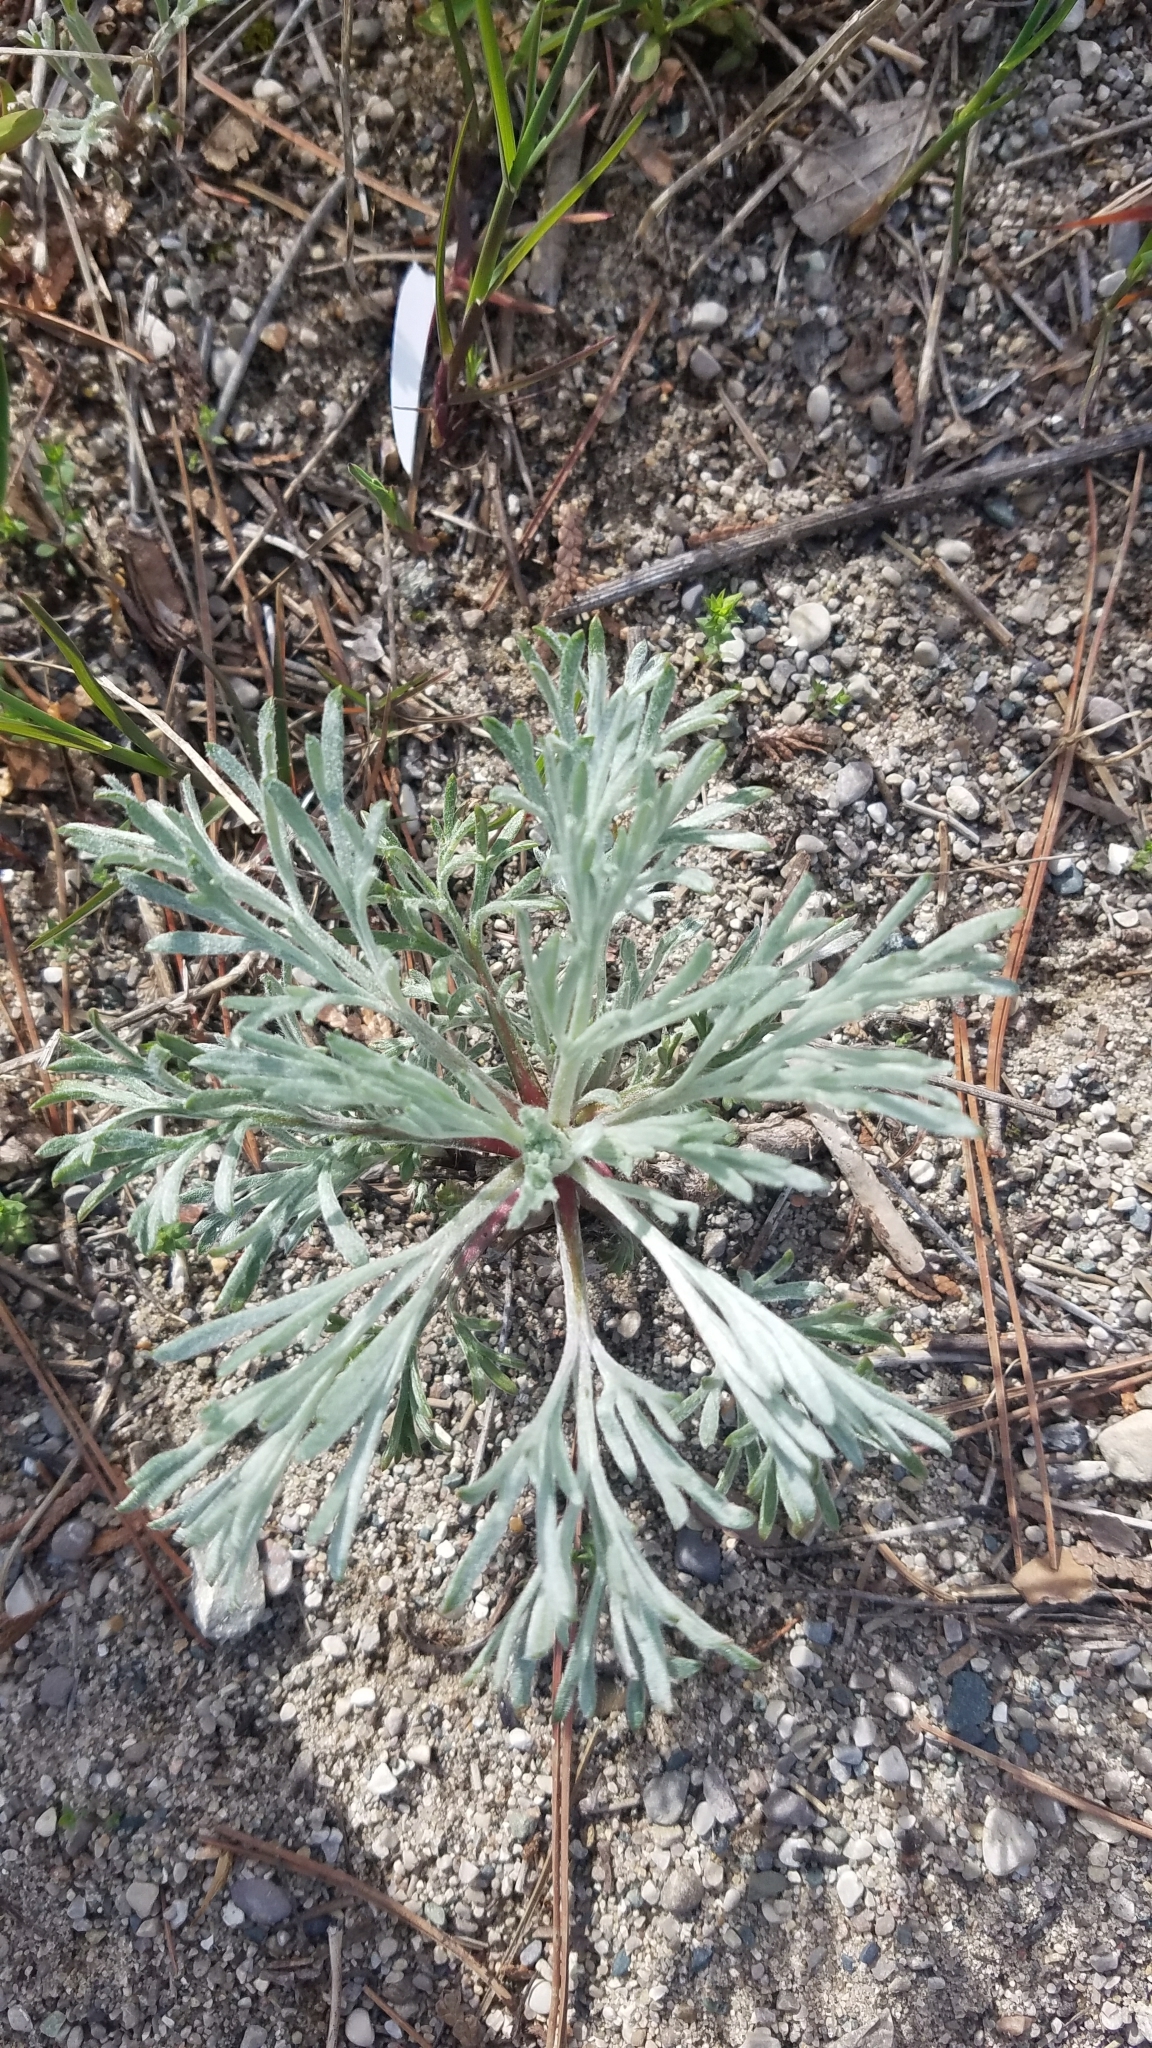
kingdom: Plantae
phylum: Tracheophyta
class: Magnoliopsida
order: Asterales
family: Asteraceae
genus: Artemisia
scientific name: Artemisia campestris
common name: Field wormwood
